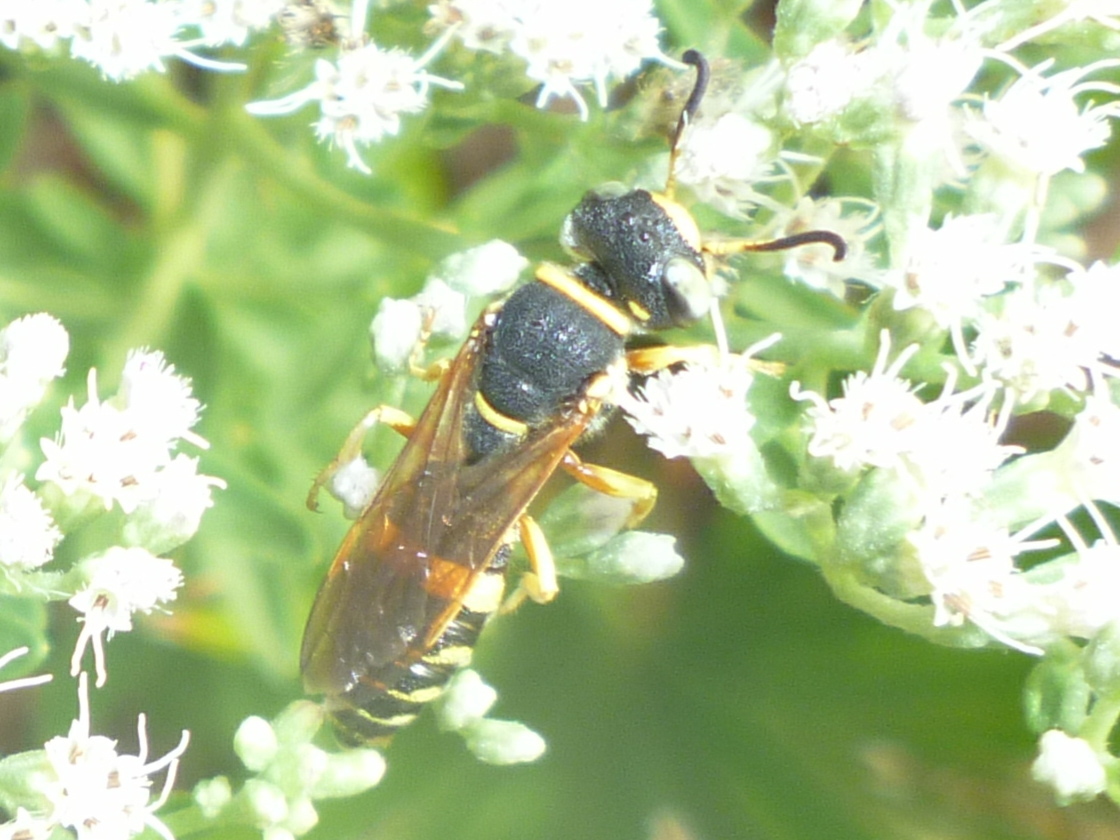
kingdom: Animalia
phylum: Arthropoda
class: Insecta
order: Hymenoptera
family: Crabronidae
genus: Philanthus
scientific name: Philanthus ventilabris
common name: Bee-killer wasp
